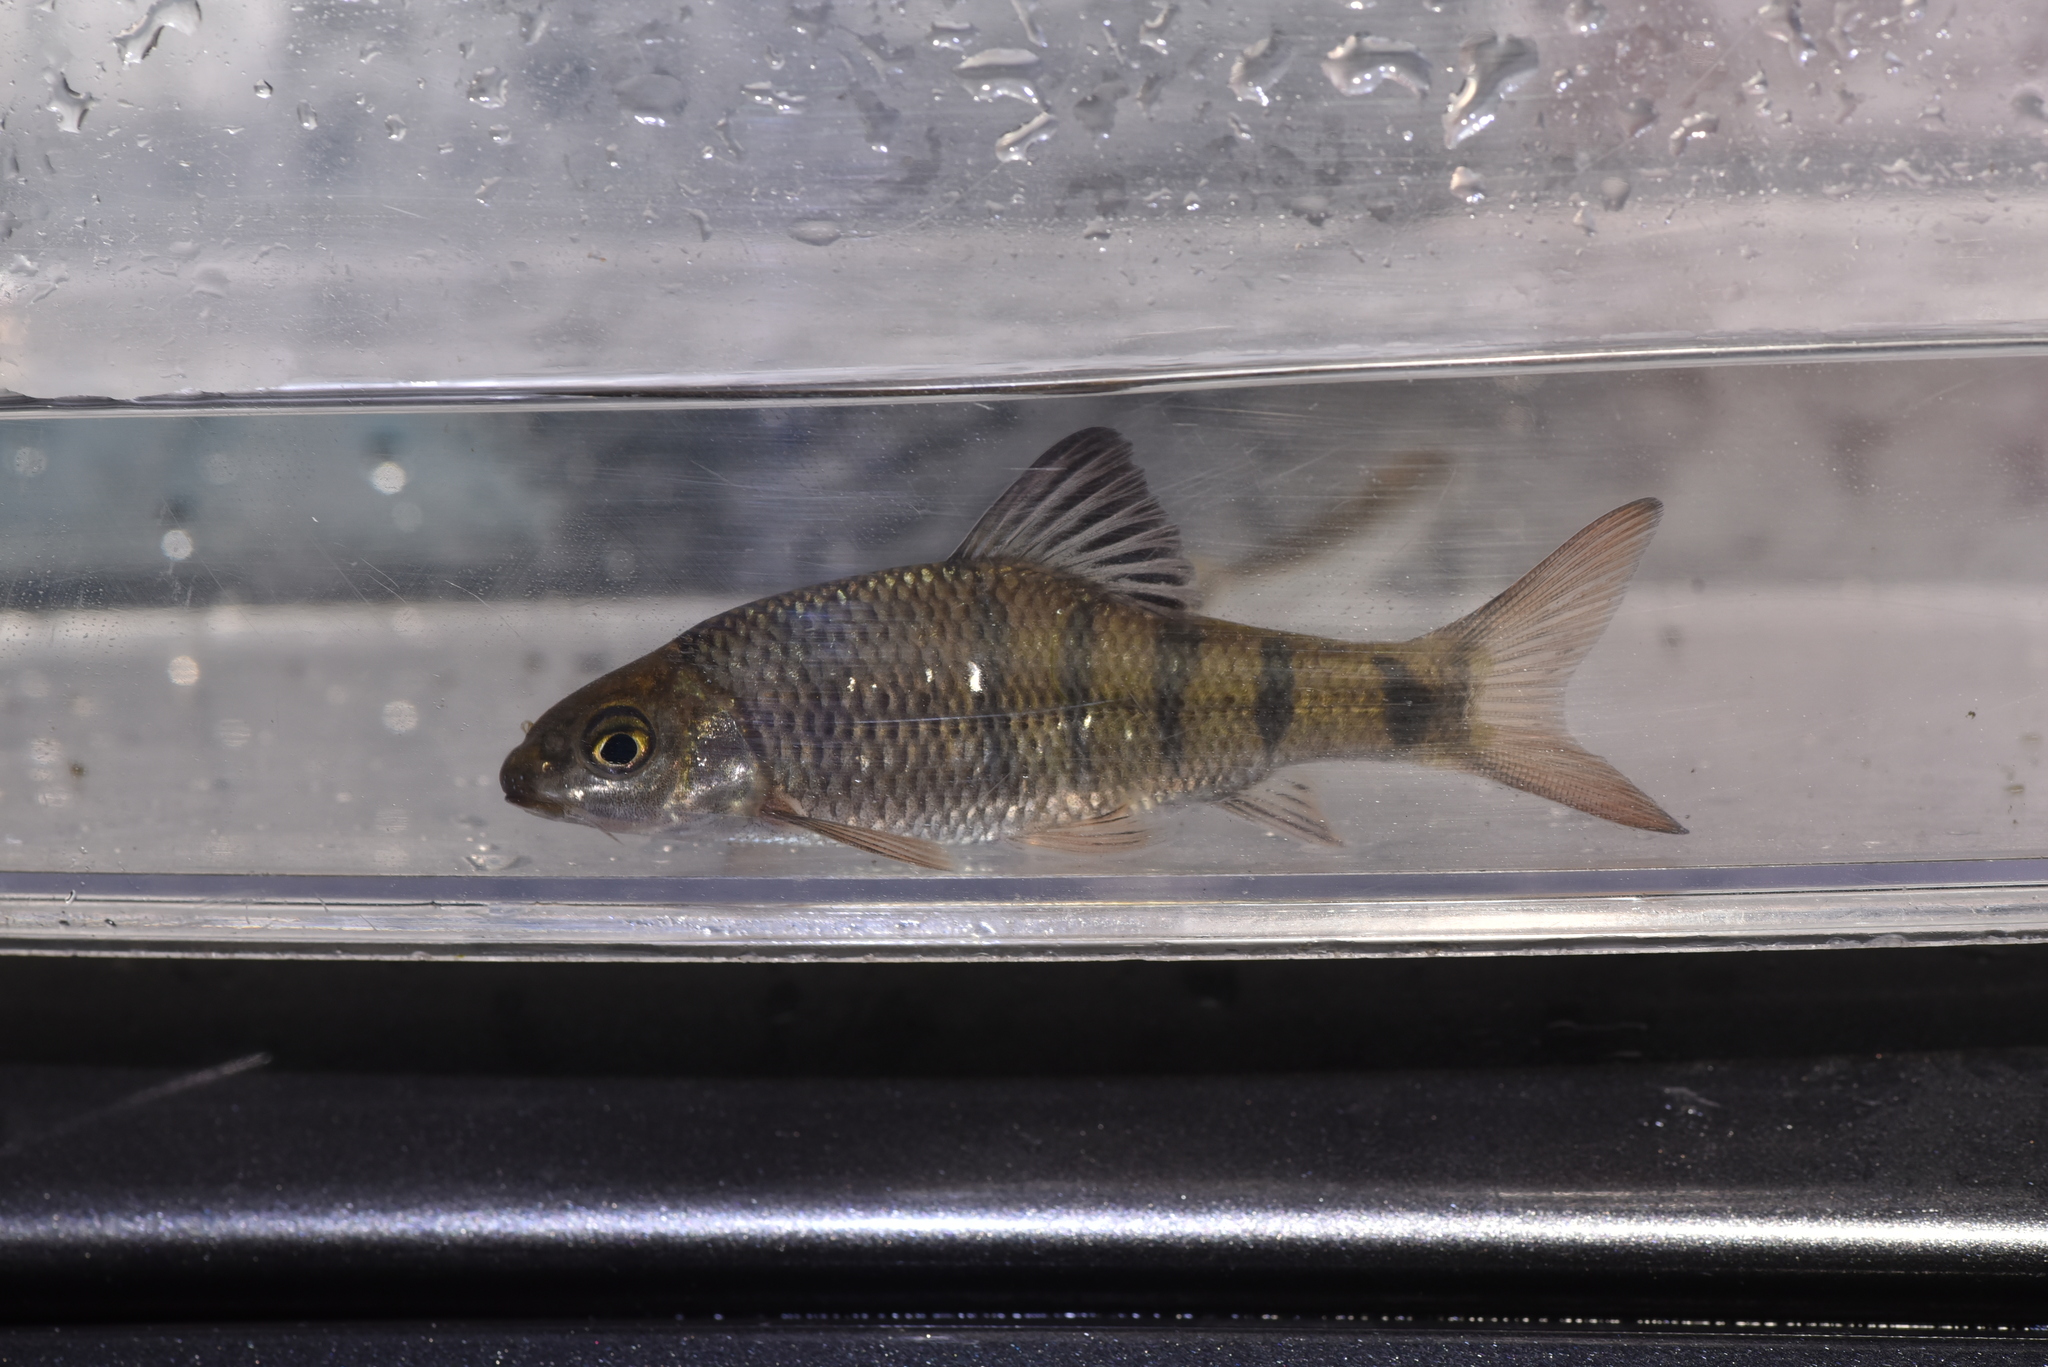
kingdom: Animalia
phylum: Chordata
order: Cypriniformes
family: Cyprinidae
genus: Acrossocheilus
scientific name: Acrossocheilus paradoxus
